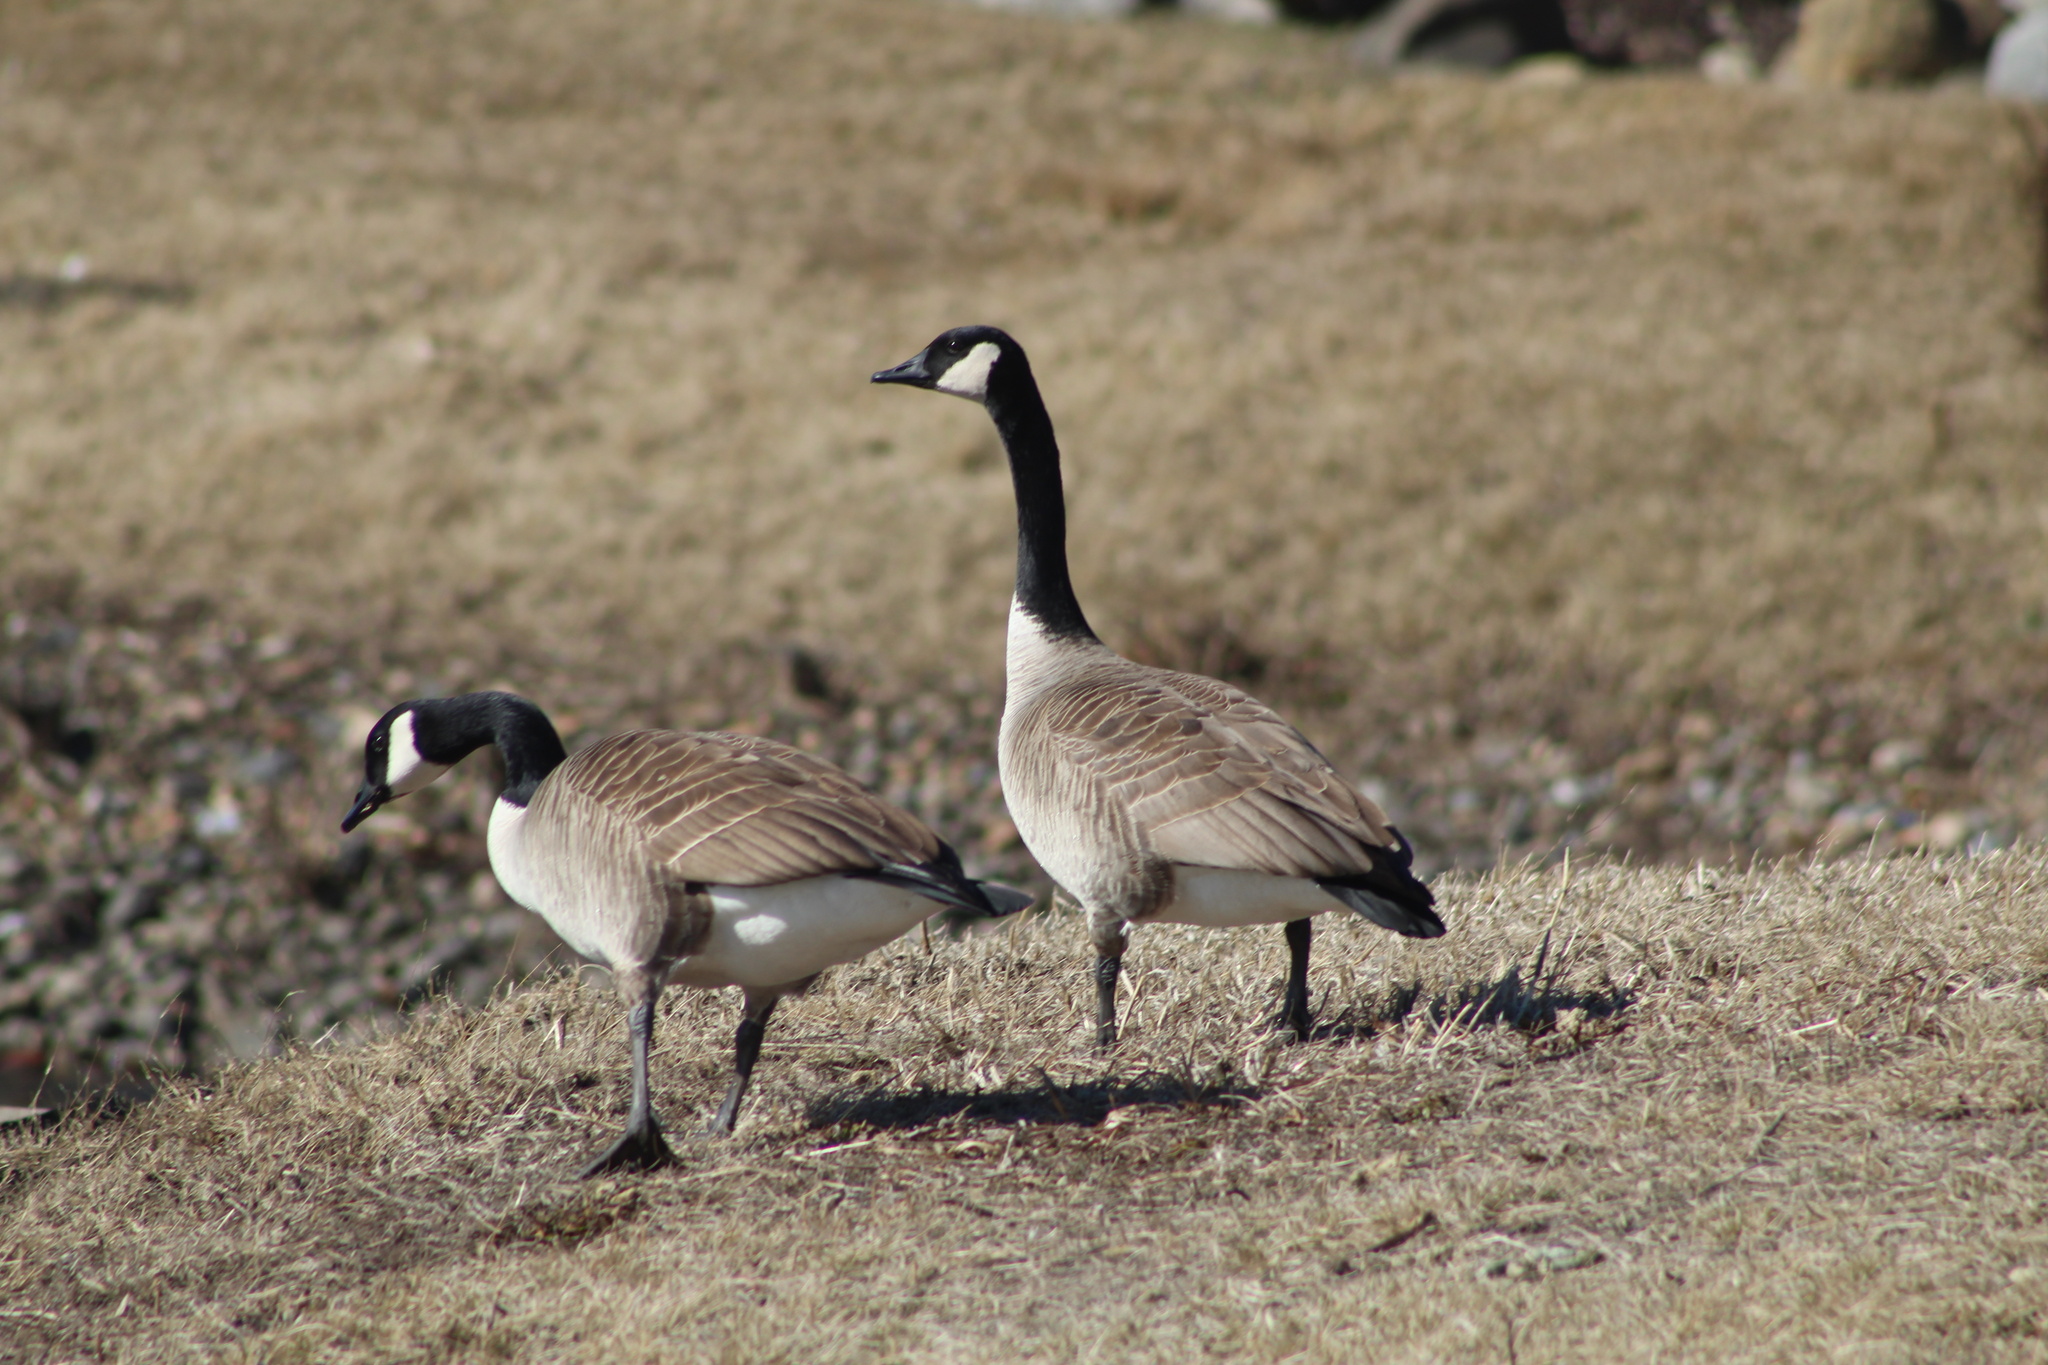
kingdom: Animalia
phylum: Chordata
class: Aves
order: Anseriformes
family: Anatidae
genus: Branta
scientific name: Branta canadensis
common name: Canada goose
